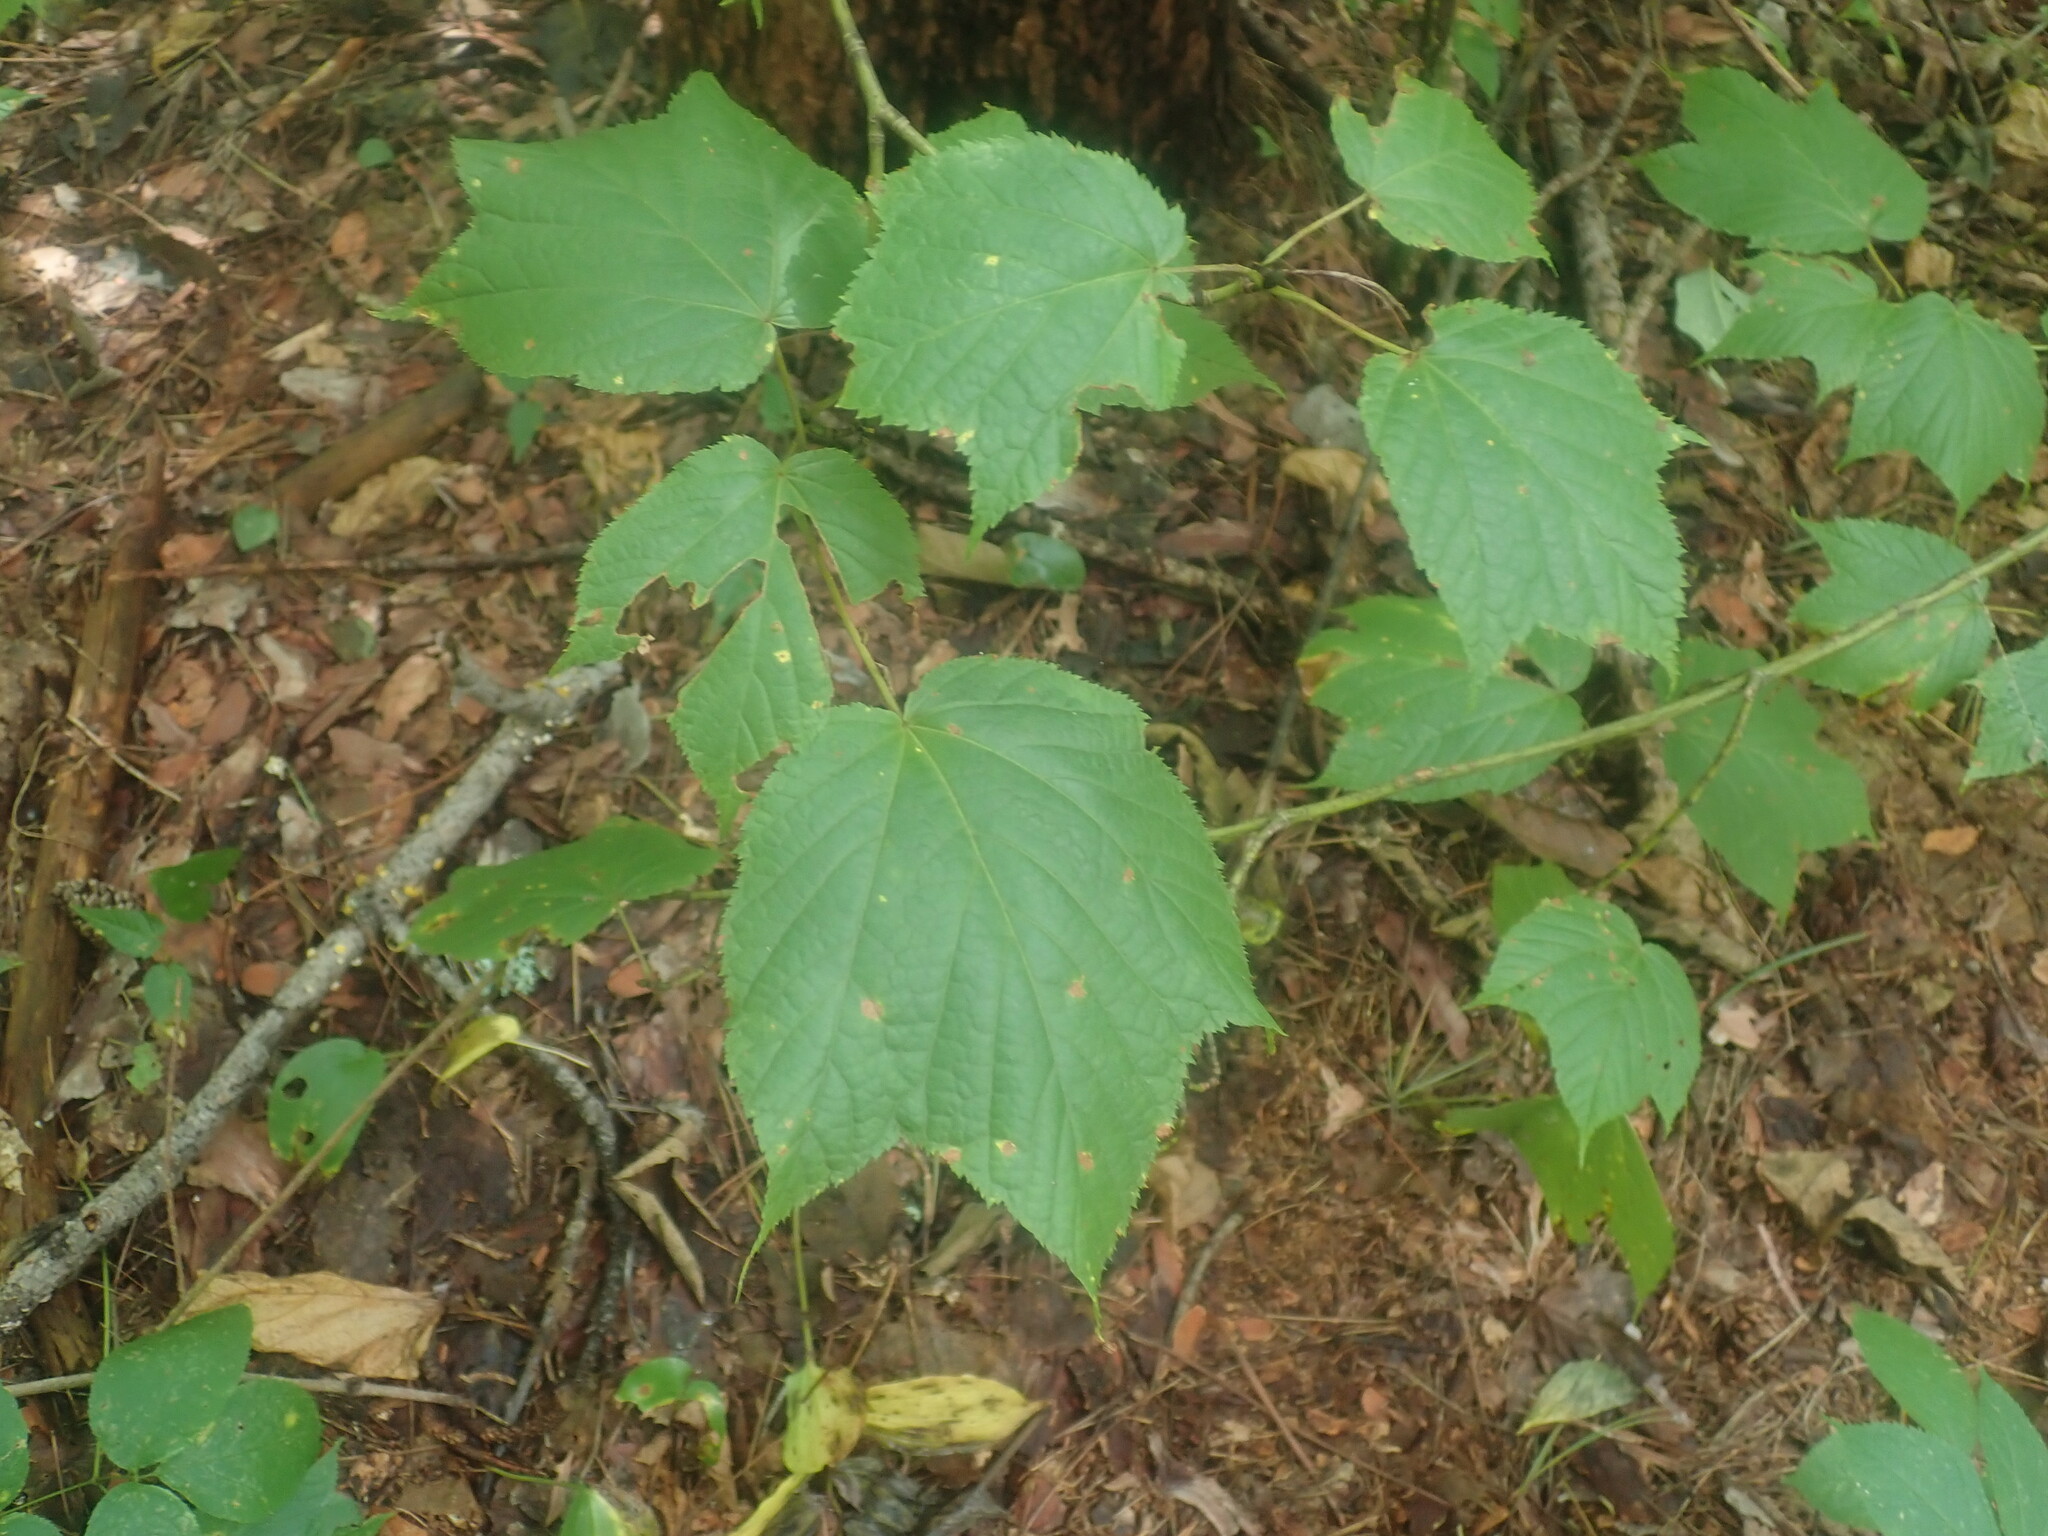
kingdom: Plantae
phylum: Tracheophyta
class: Magnoliopsida
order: Sapindales
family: Sapindaceae
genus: Acer
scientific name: Acer pensylvanicum
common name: Moosewood
